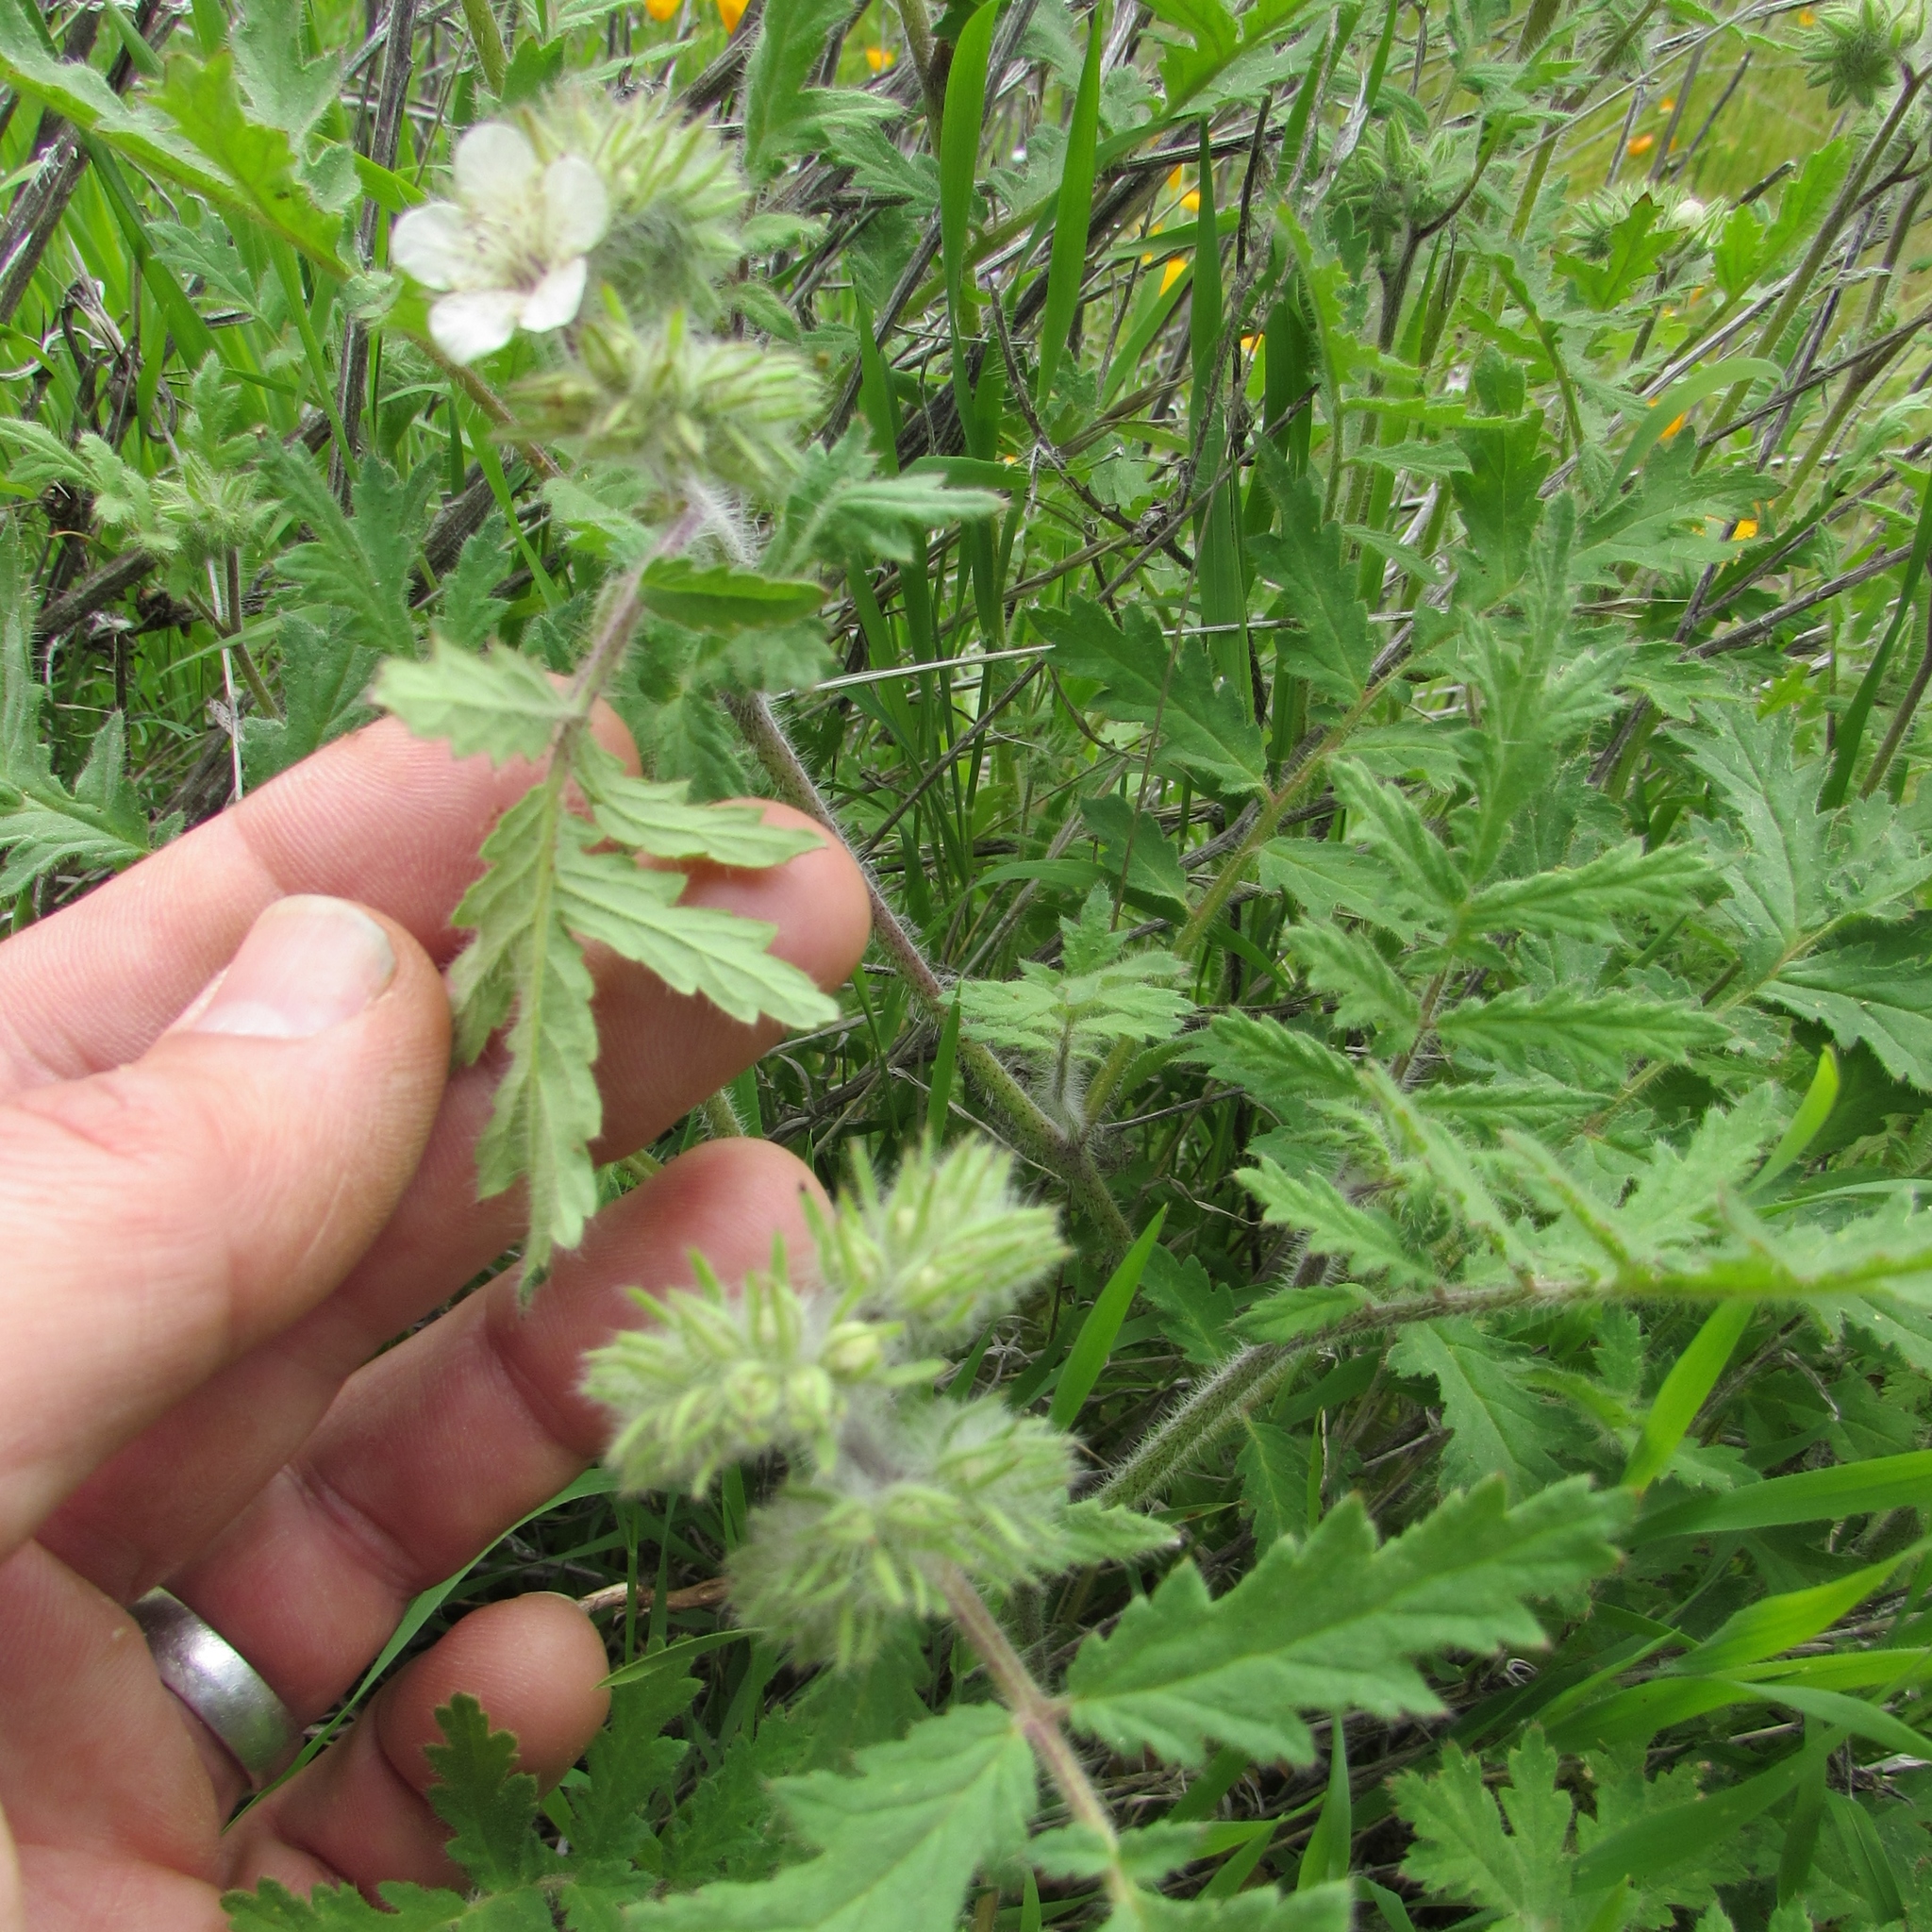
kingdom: Plantae
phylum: Tracheophyta
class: Magnoliopsida
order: Boraginales
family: Hydrophyllaceae
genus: Phacelia
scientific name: Phacelia cicutaria
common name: Caterpillar phacelia
